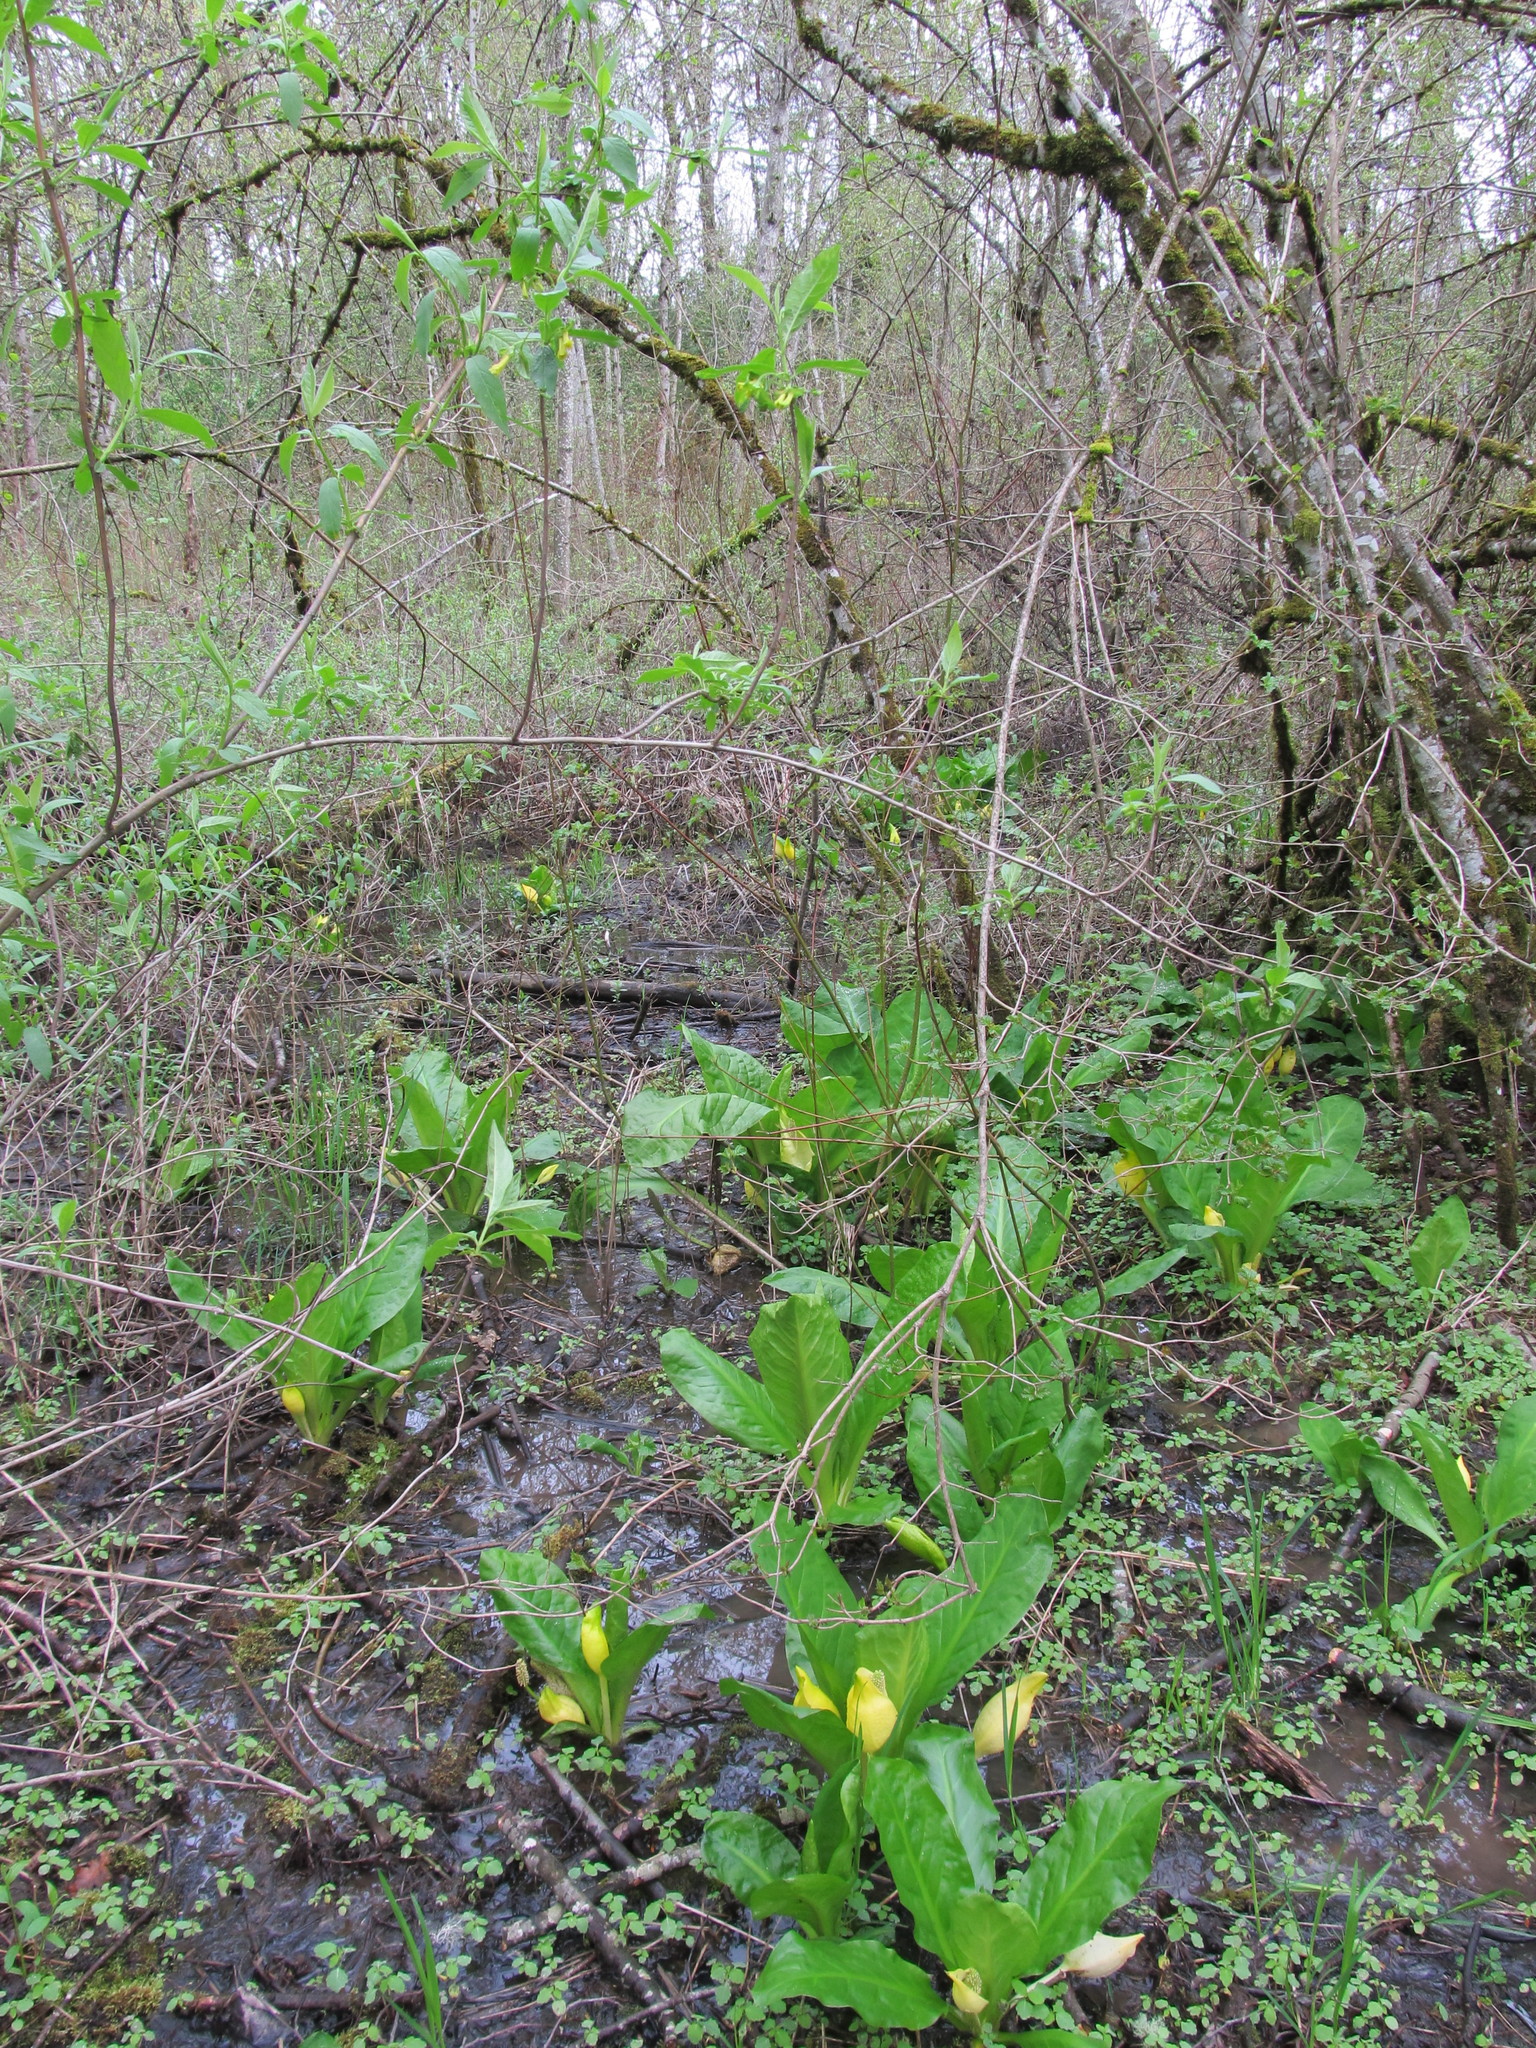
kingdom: Plantae
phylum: Tracheophyta
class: Liliopsida
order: Alismatales
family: Araceae
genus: Lysichiton
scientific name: Lysichiton americanus
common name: American skunk cabbage
